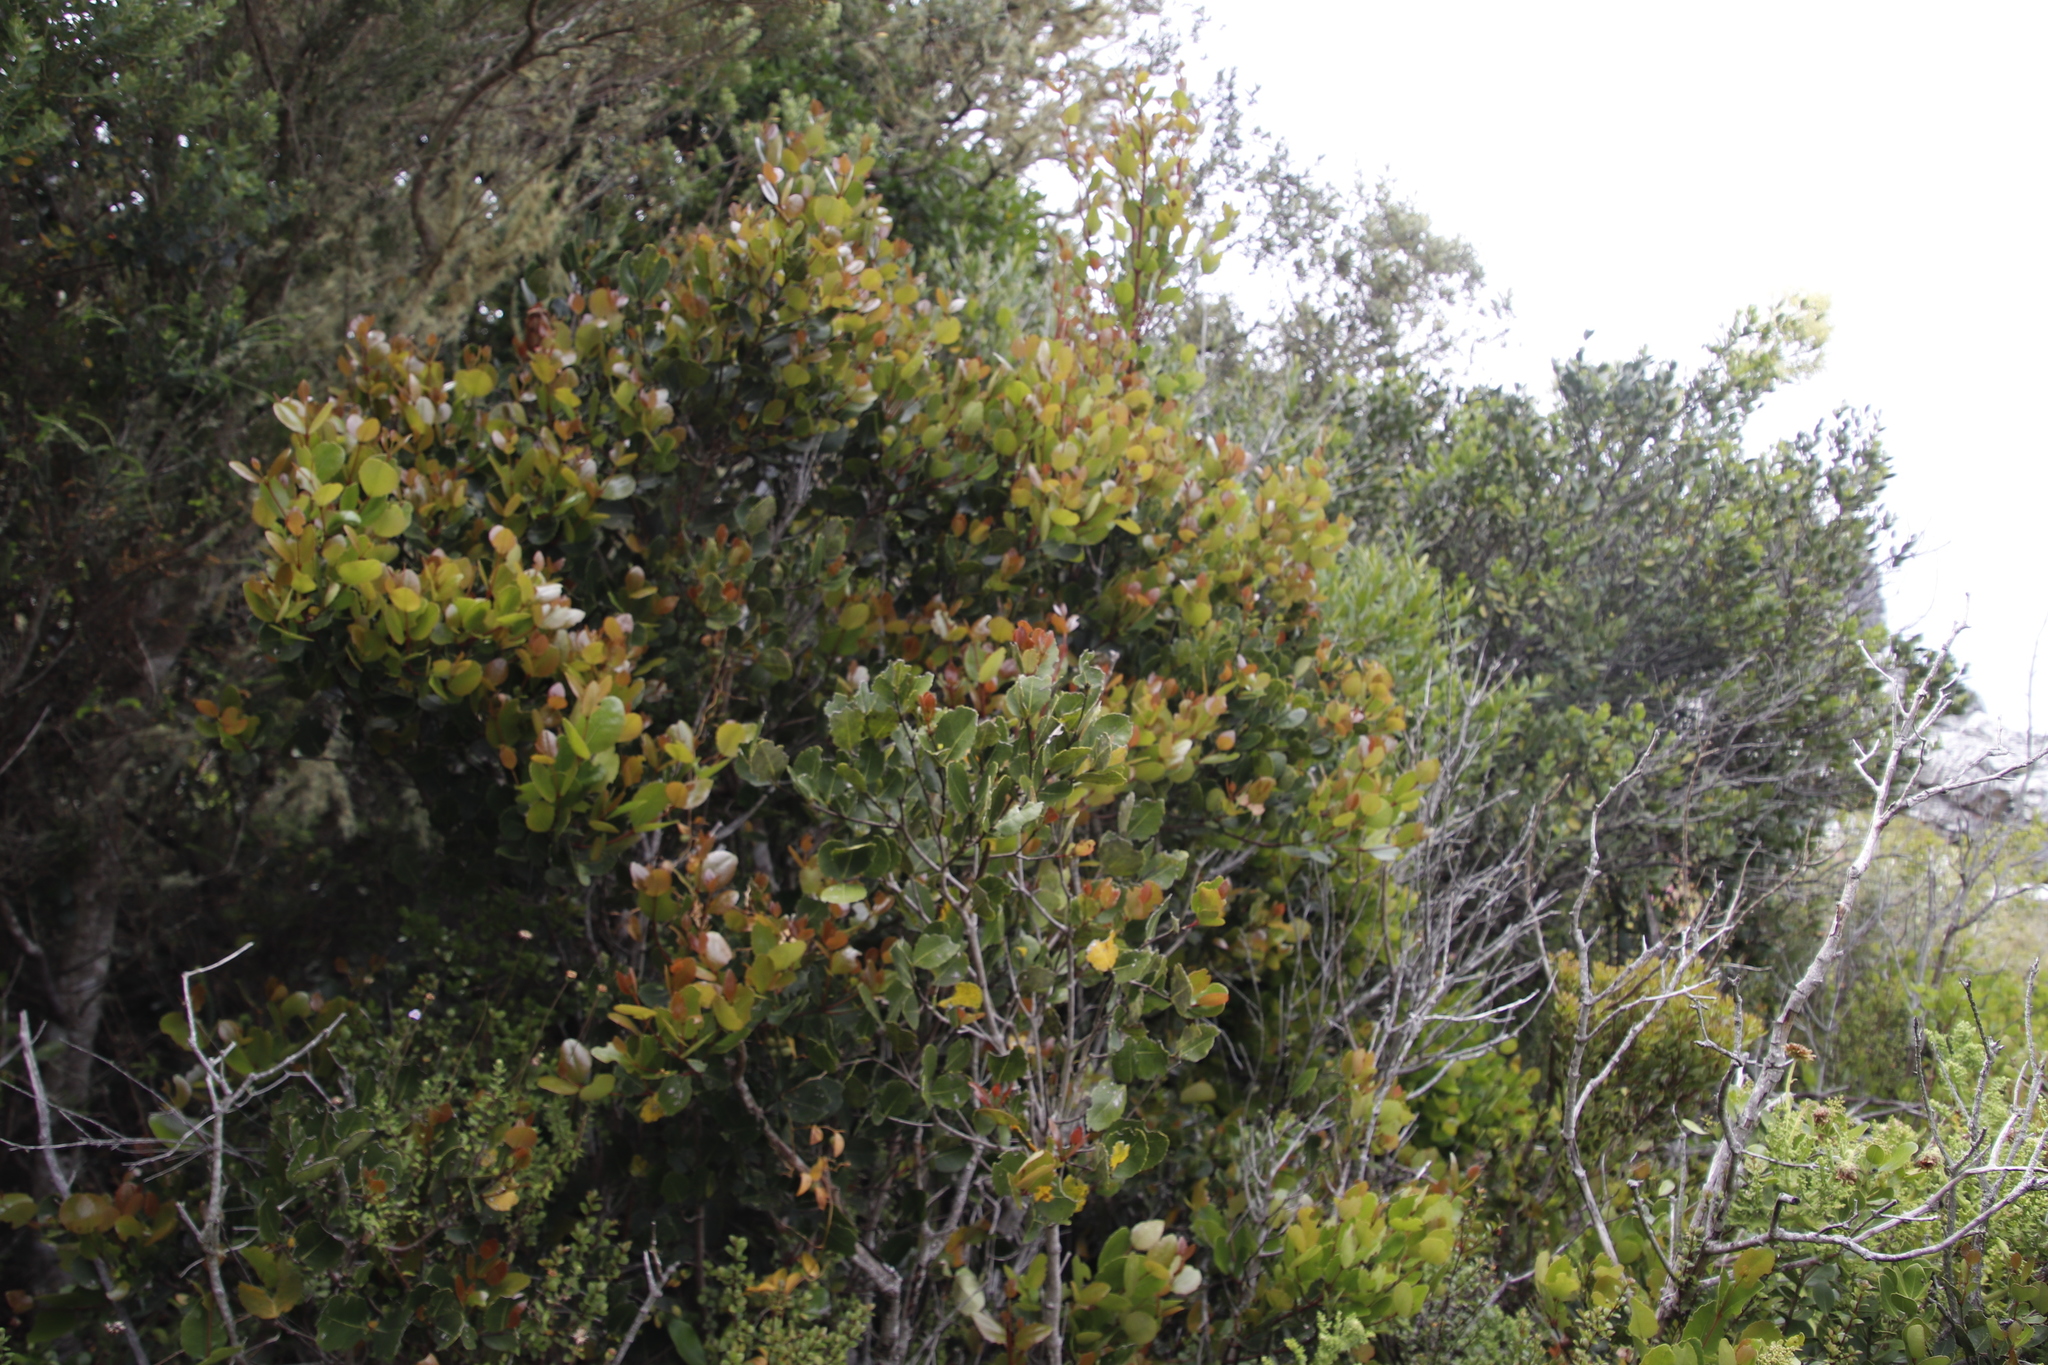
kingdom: Plantae
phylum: Tracheophyta
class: Magnoliopsida
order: Celastrales
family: Celastraceae
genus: Cassine
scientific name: Cassine peragua
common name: Cape saffron
